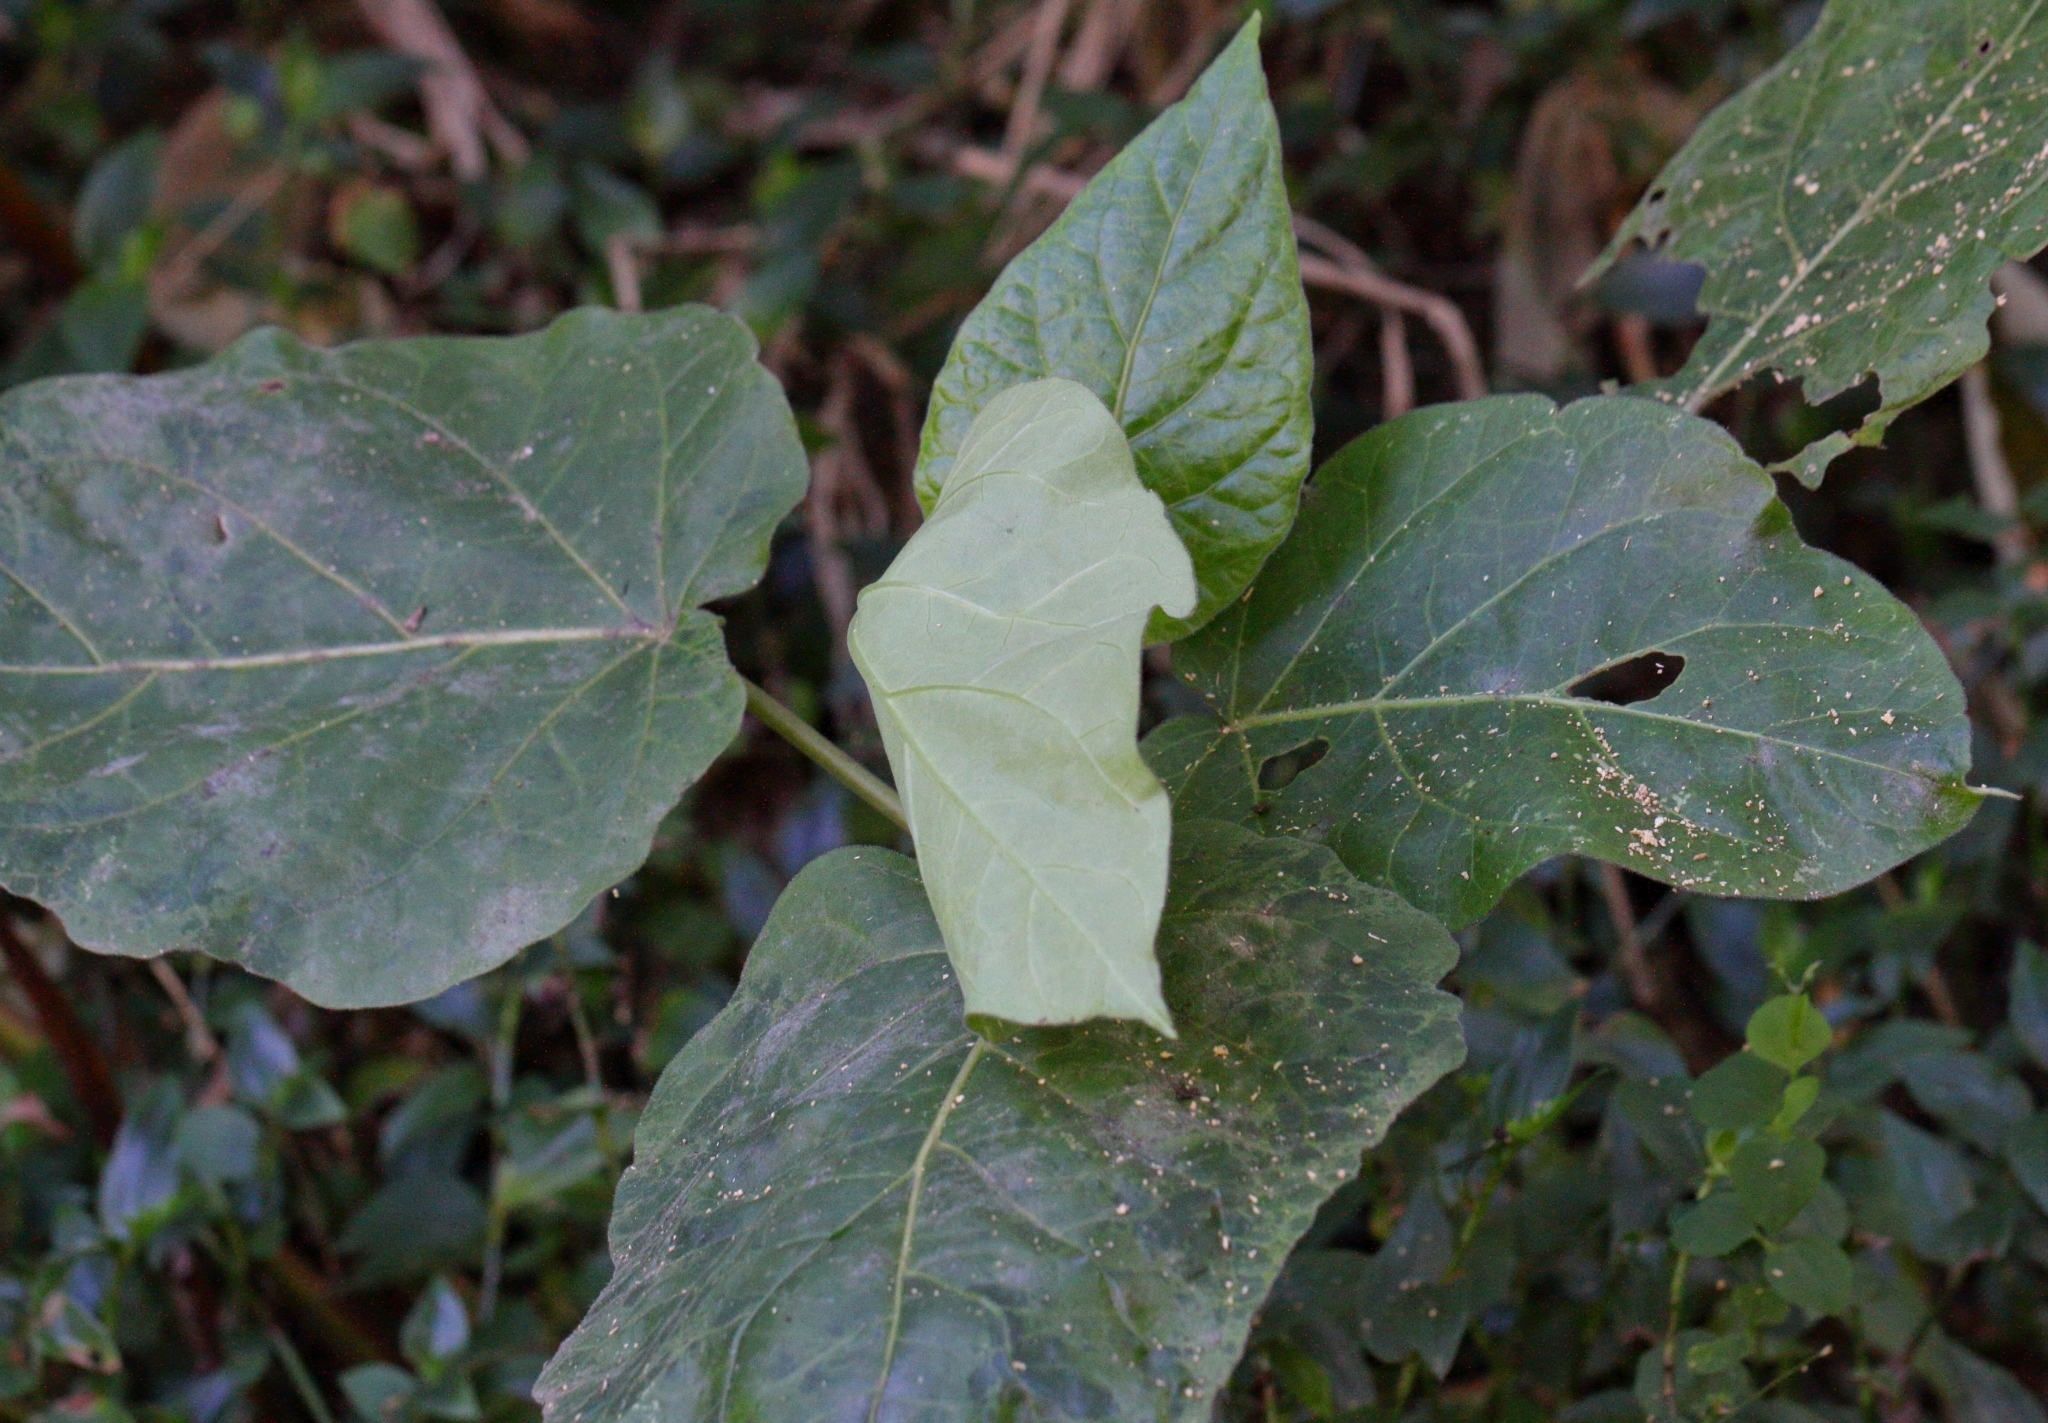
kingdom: Plantae
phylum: Tracheophyta
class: Magnoliopsida
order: Solanales
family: Solanaceae
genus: Solanum
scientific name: Solanum betaceum
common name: Tamarillo
